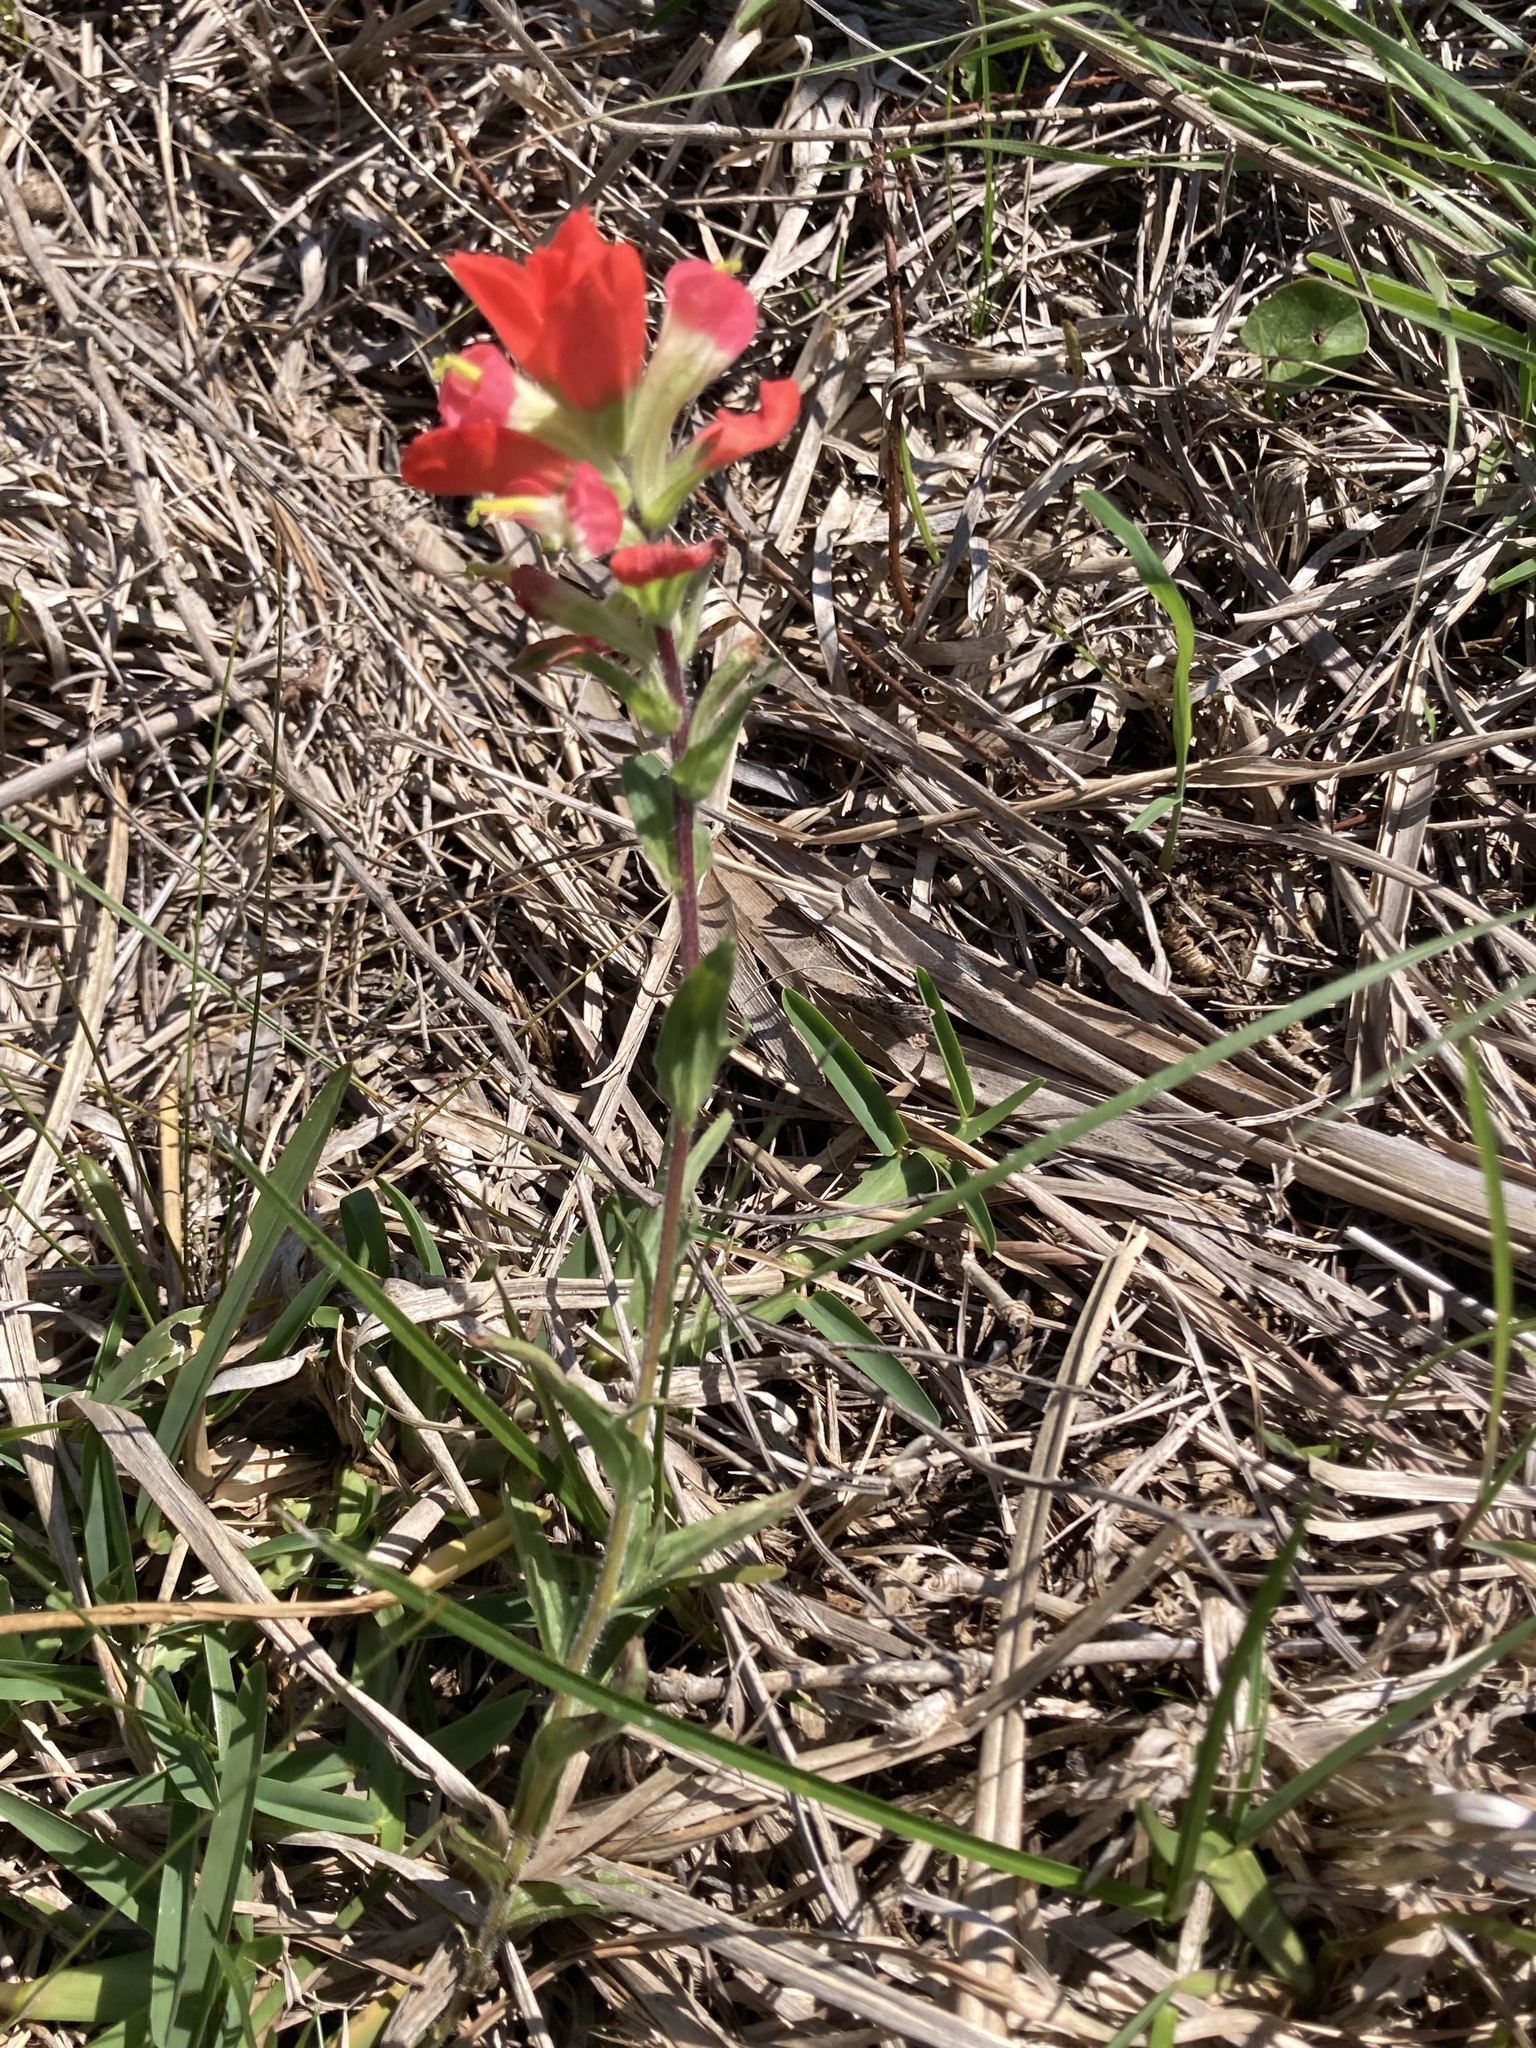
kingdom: Plantae
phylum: Tracheophyta
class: Magnoliopsida
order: Lamiales
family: Orobanchaceae
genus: Castilleja
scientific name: Castilleja indivisa
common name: Texas paintbrush
